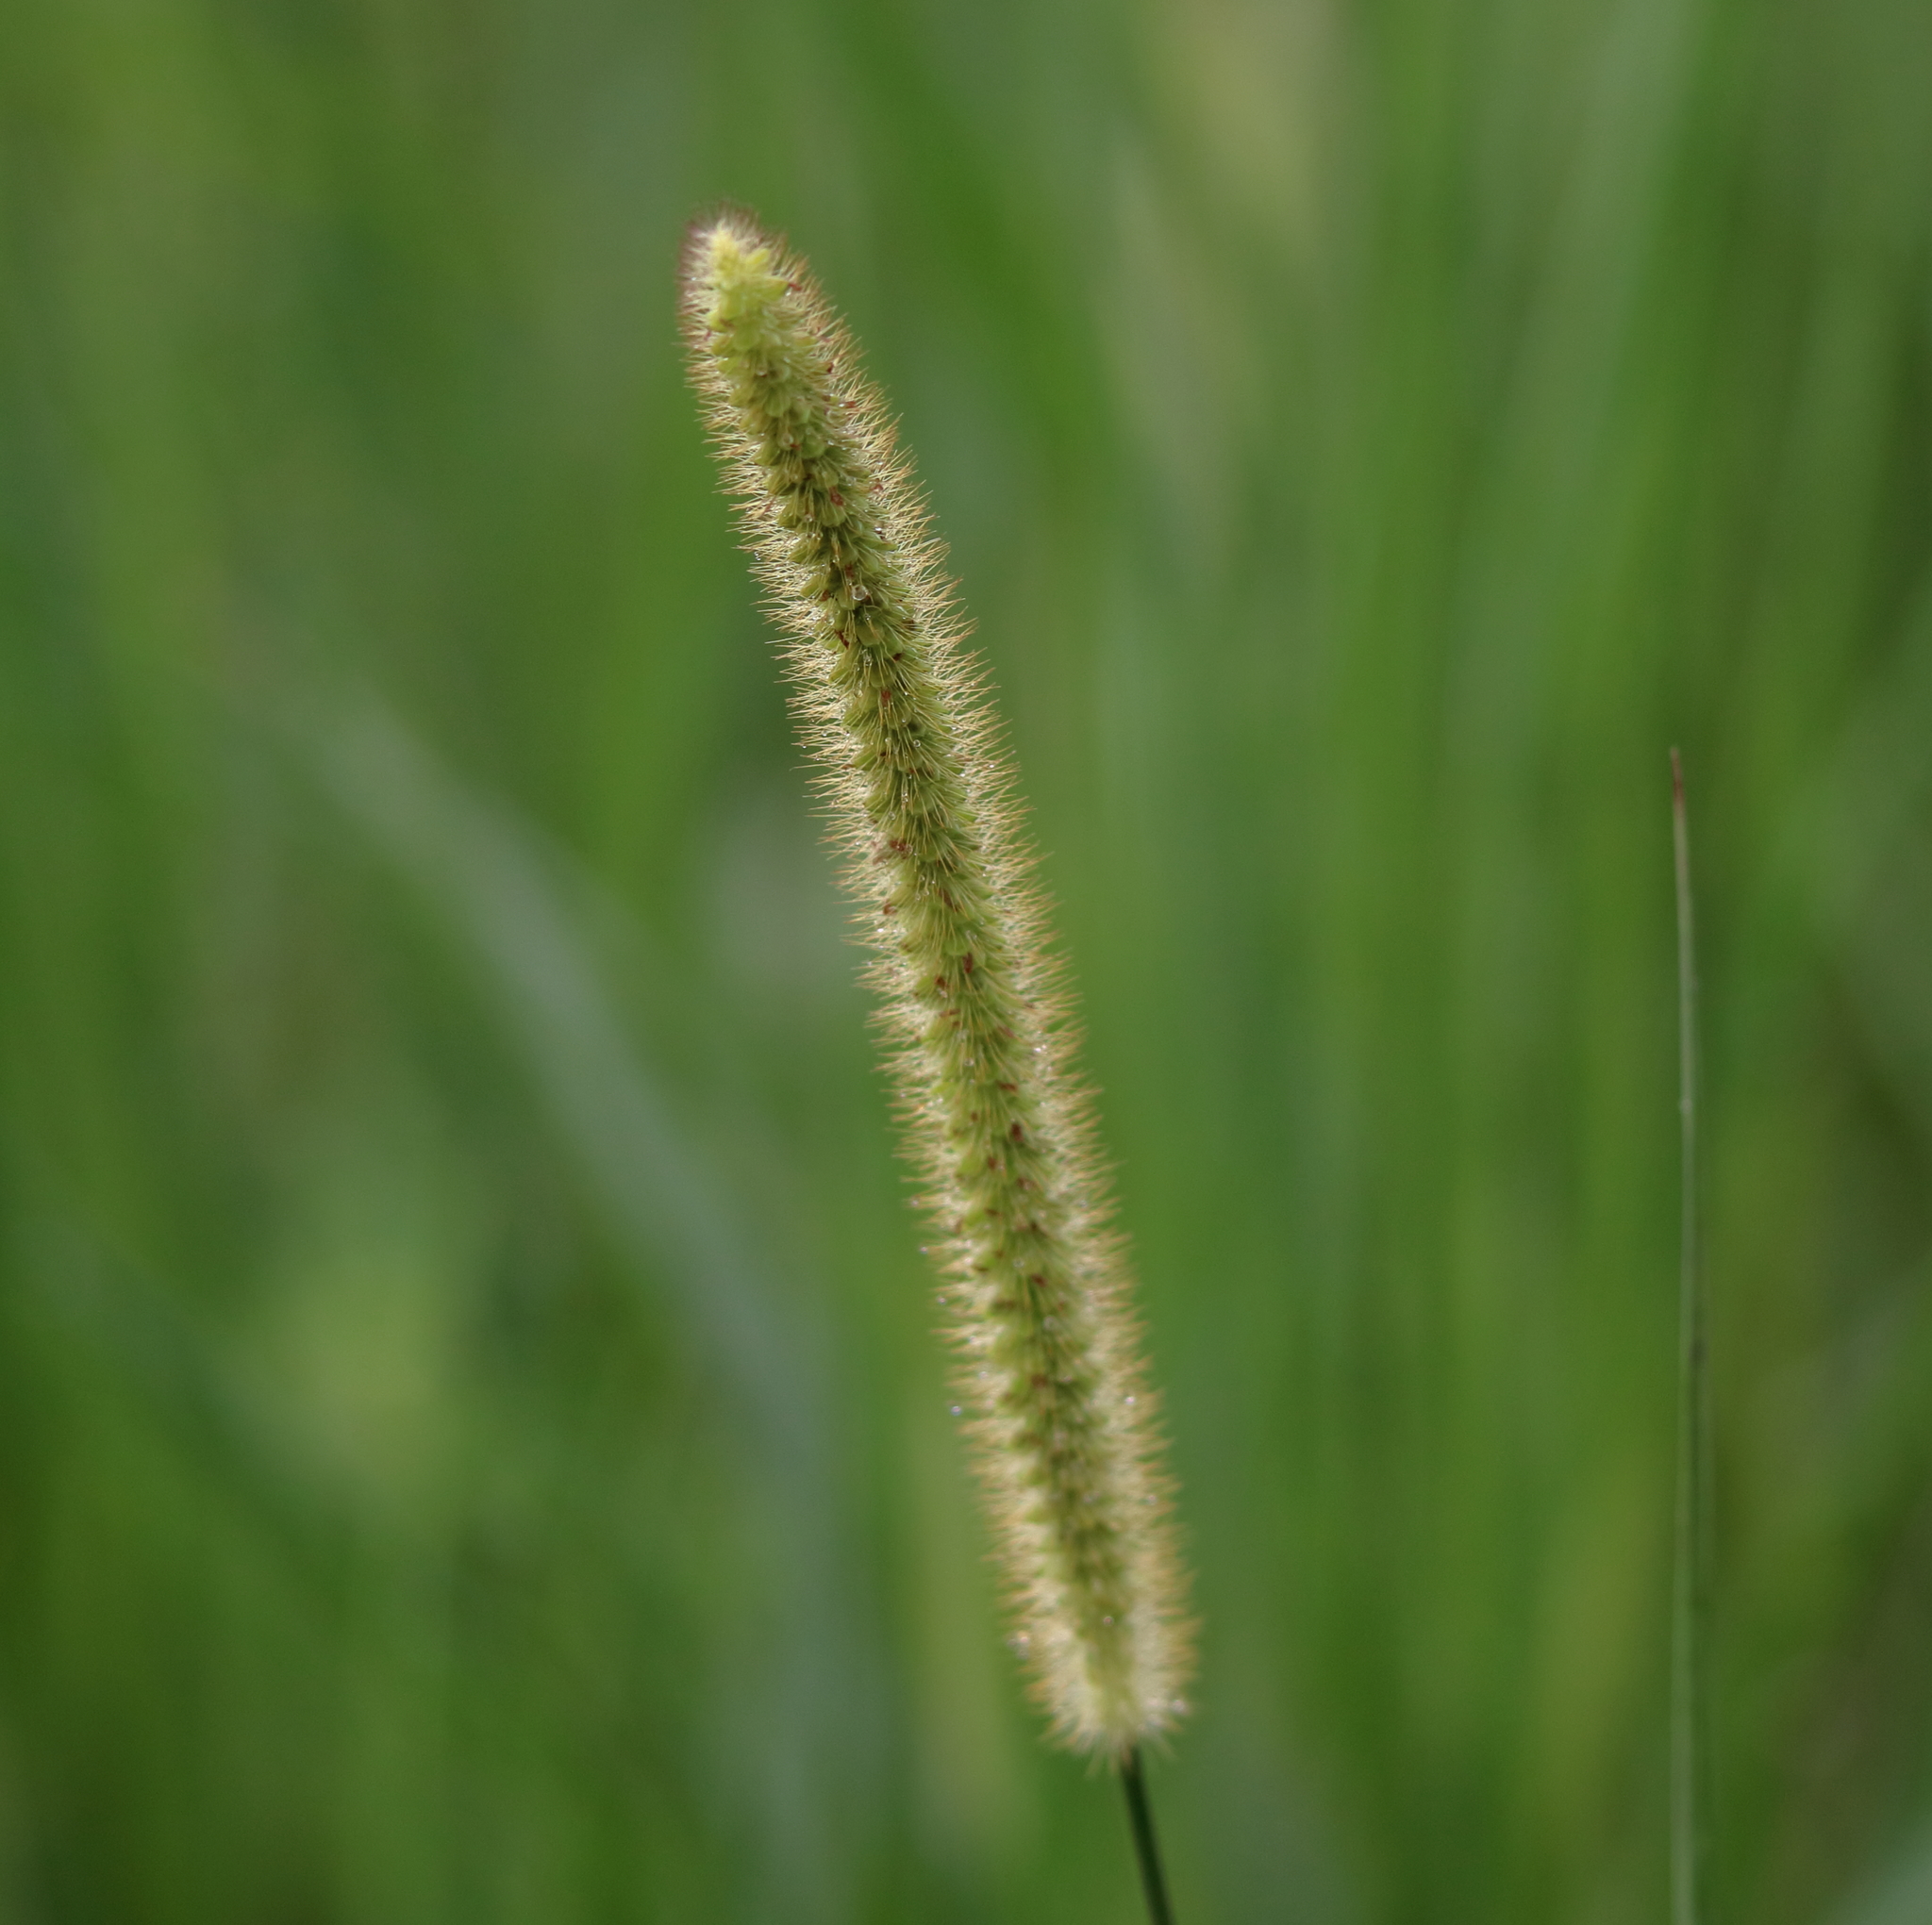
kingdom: Plantae
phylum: Tracheophyta
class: Liliopsida
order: Poales
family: Poaceae
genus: Setaria
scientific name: Setaria parviflora
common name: Knotroot bristle-grass
